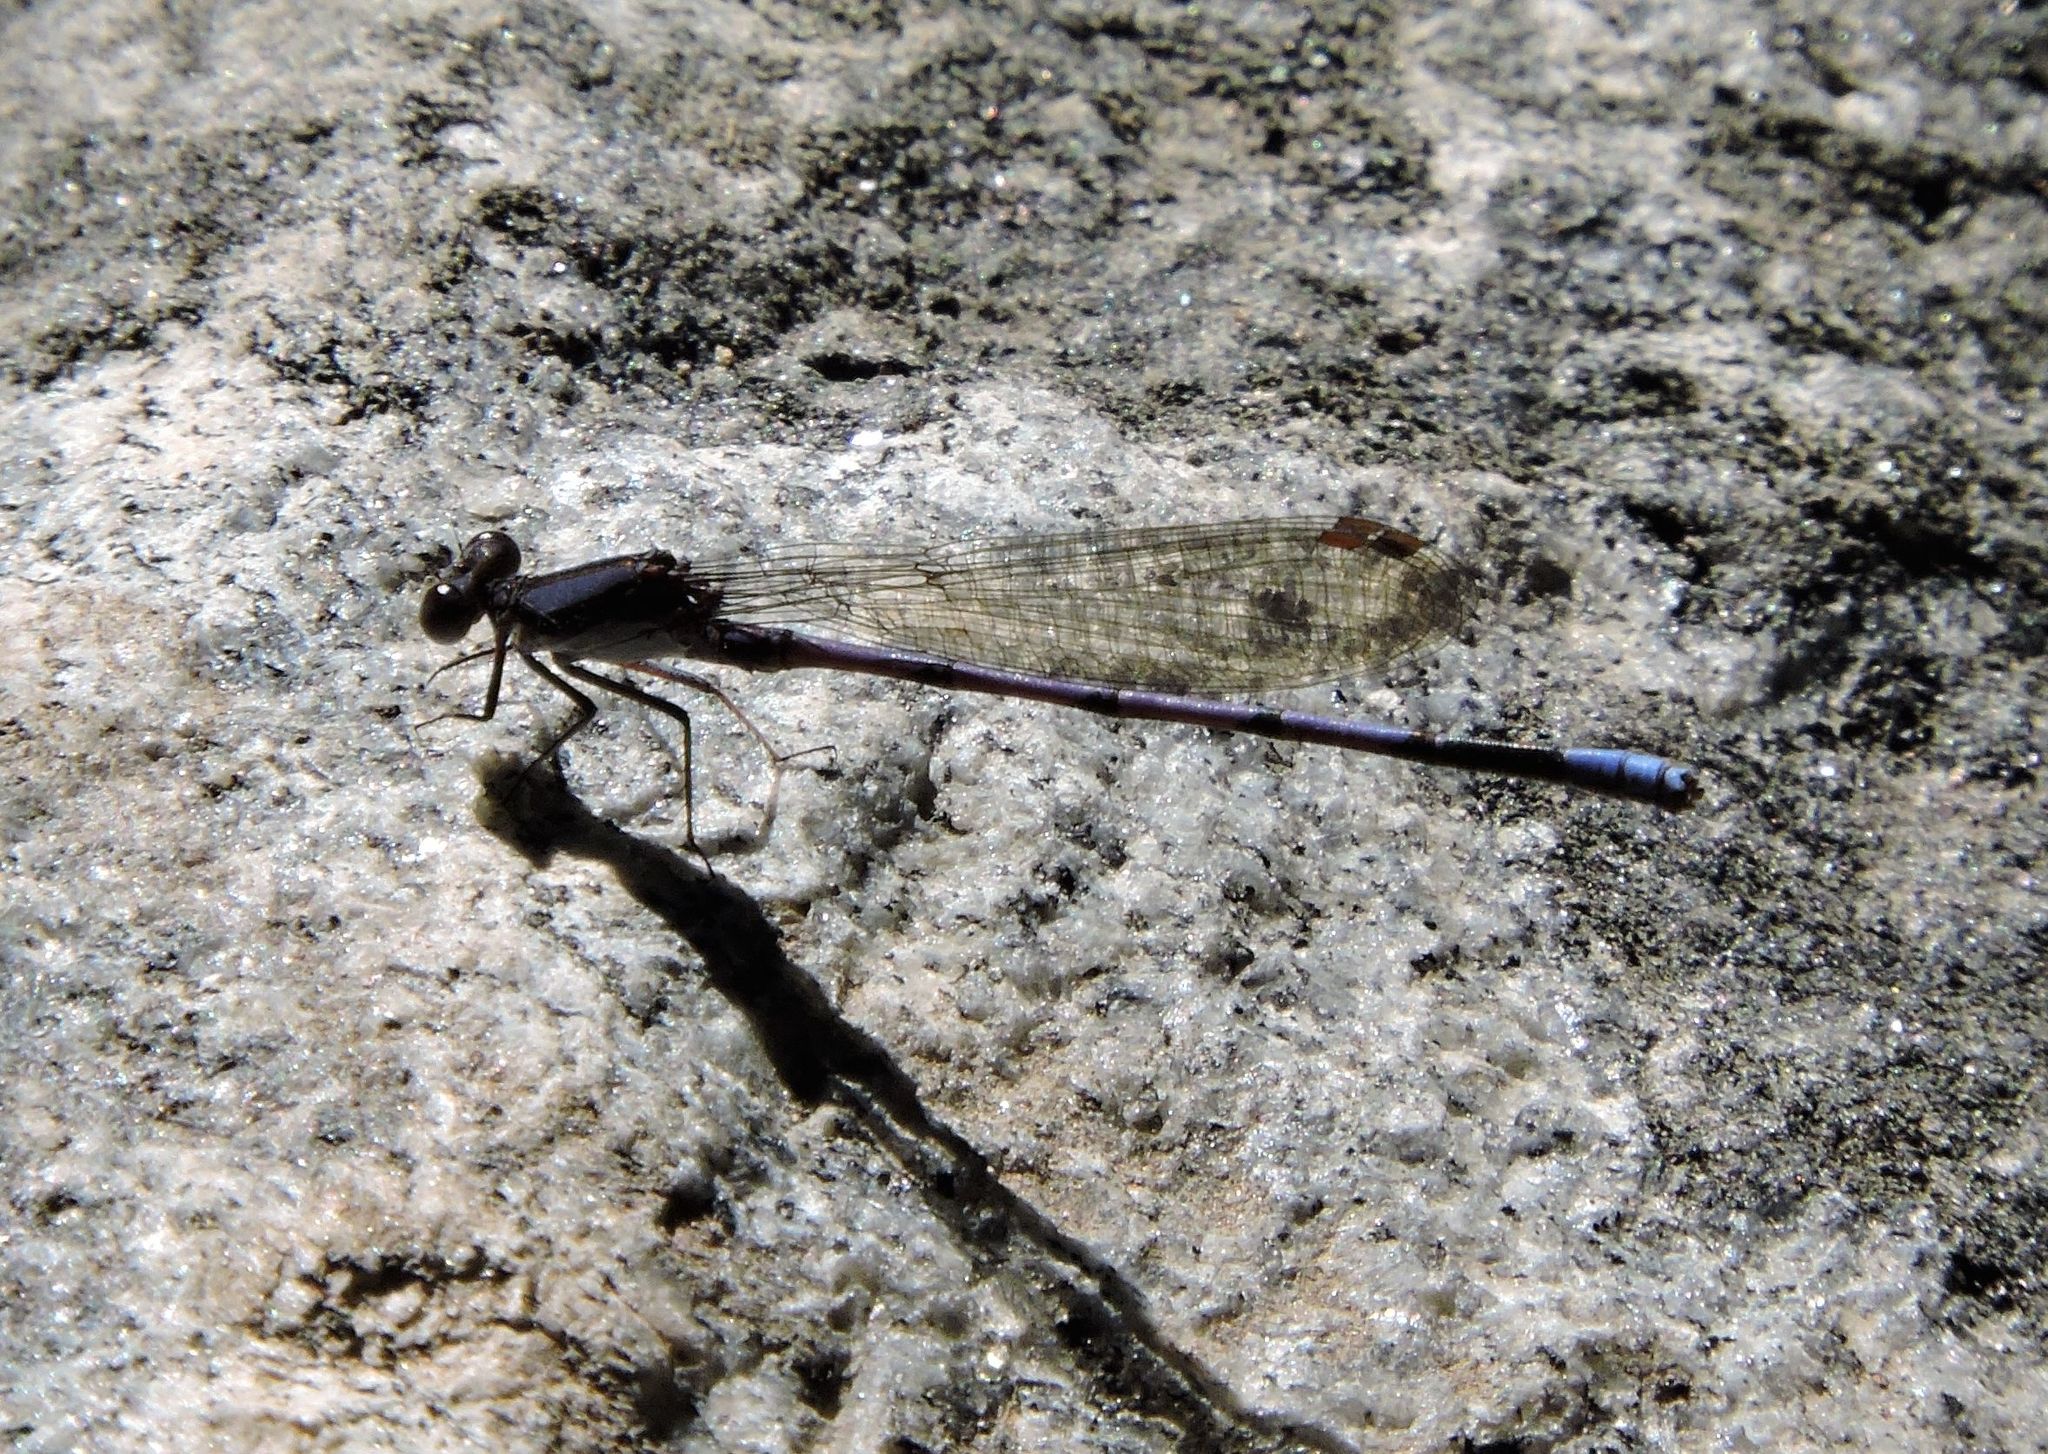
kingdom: Animalia
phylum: Arthropoda
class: Insecta
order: Odonata
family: Coenagrionidae
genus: Argia
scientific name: Argia fumipennis
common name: Variable dancer
